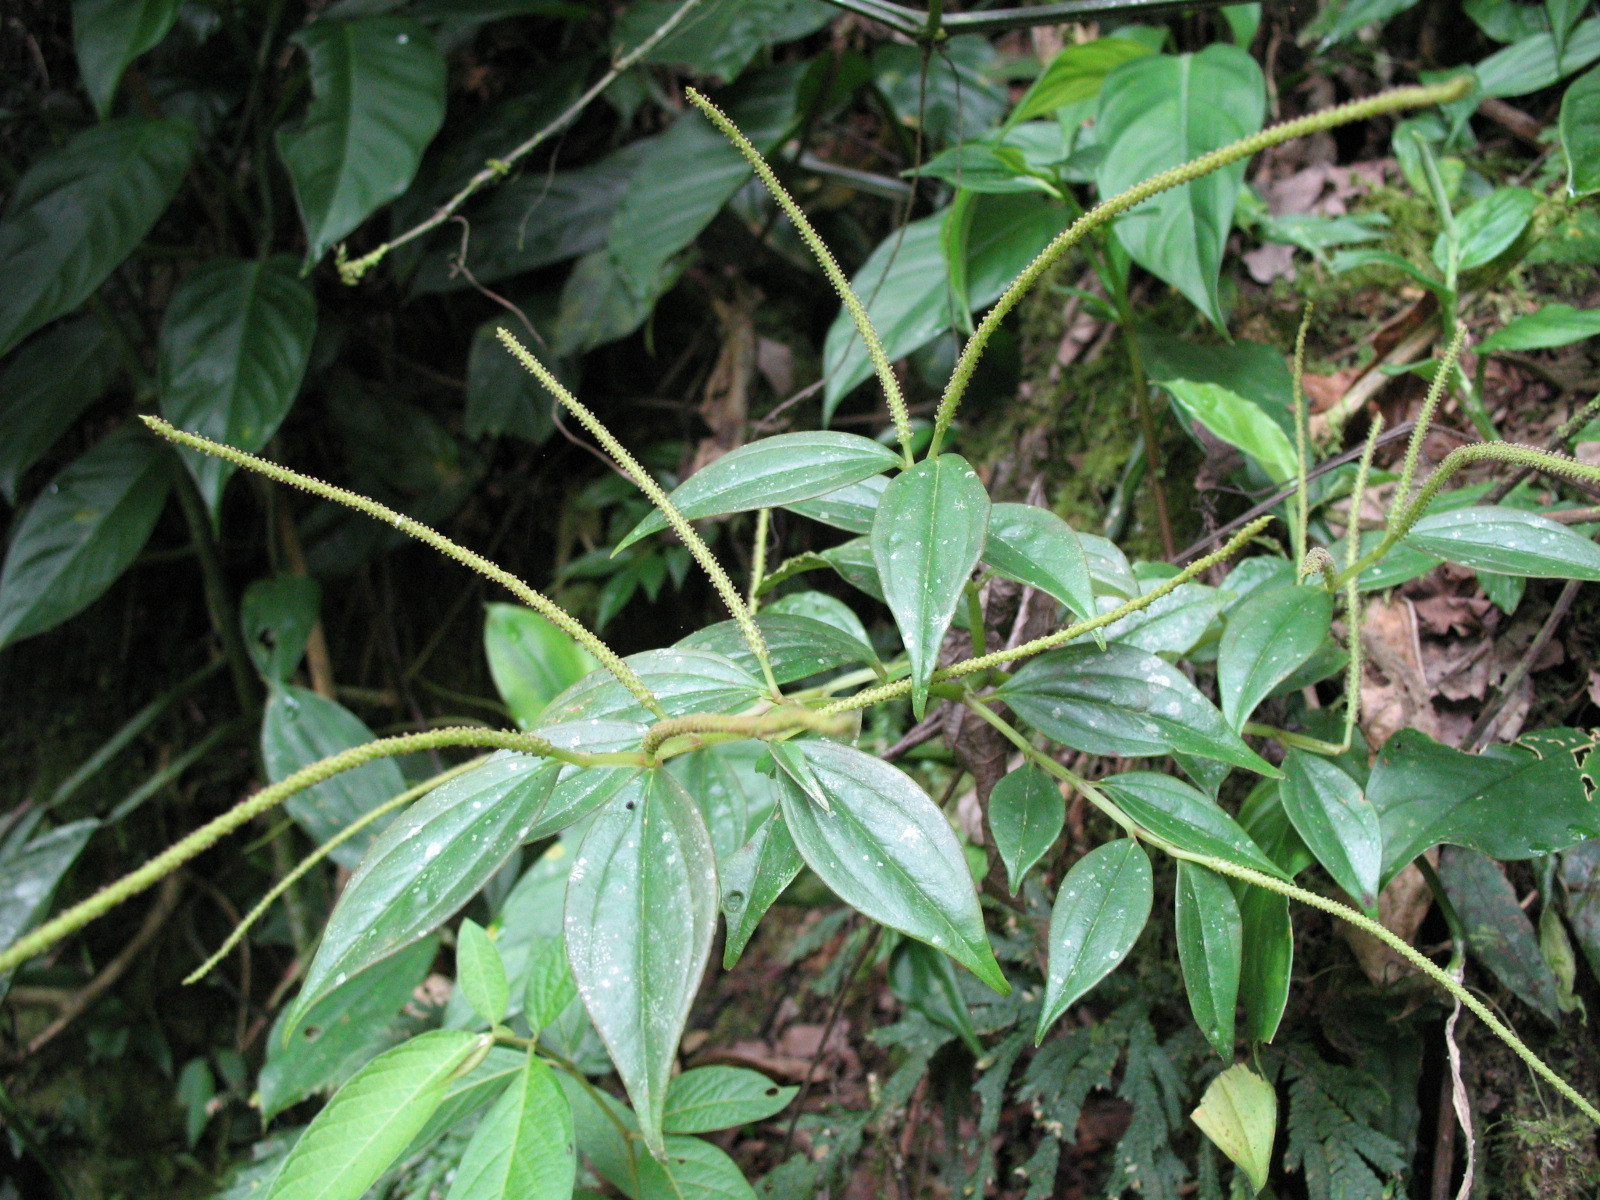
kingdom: Plantae
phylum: Tracheophyta
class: Magnoliopsida
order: Piperales
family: Piperaceae
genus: Peperomia
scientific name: Peperomia alata
